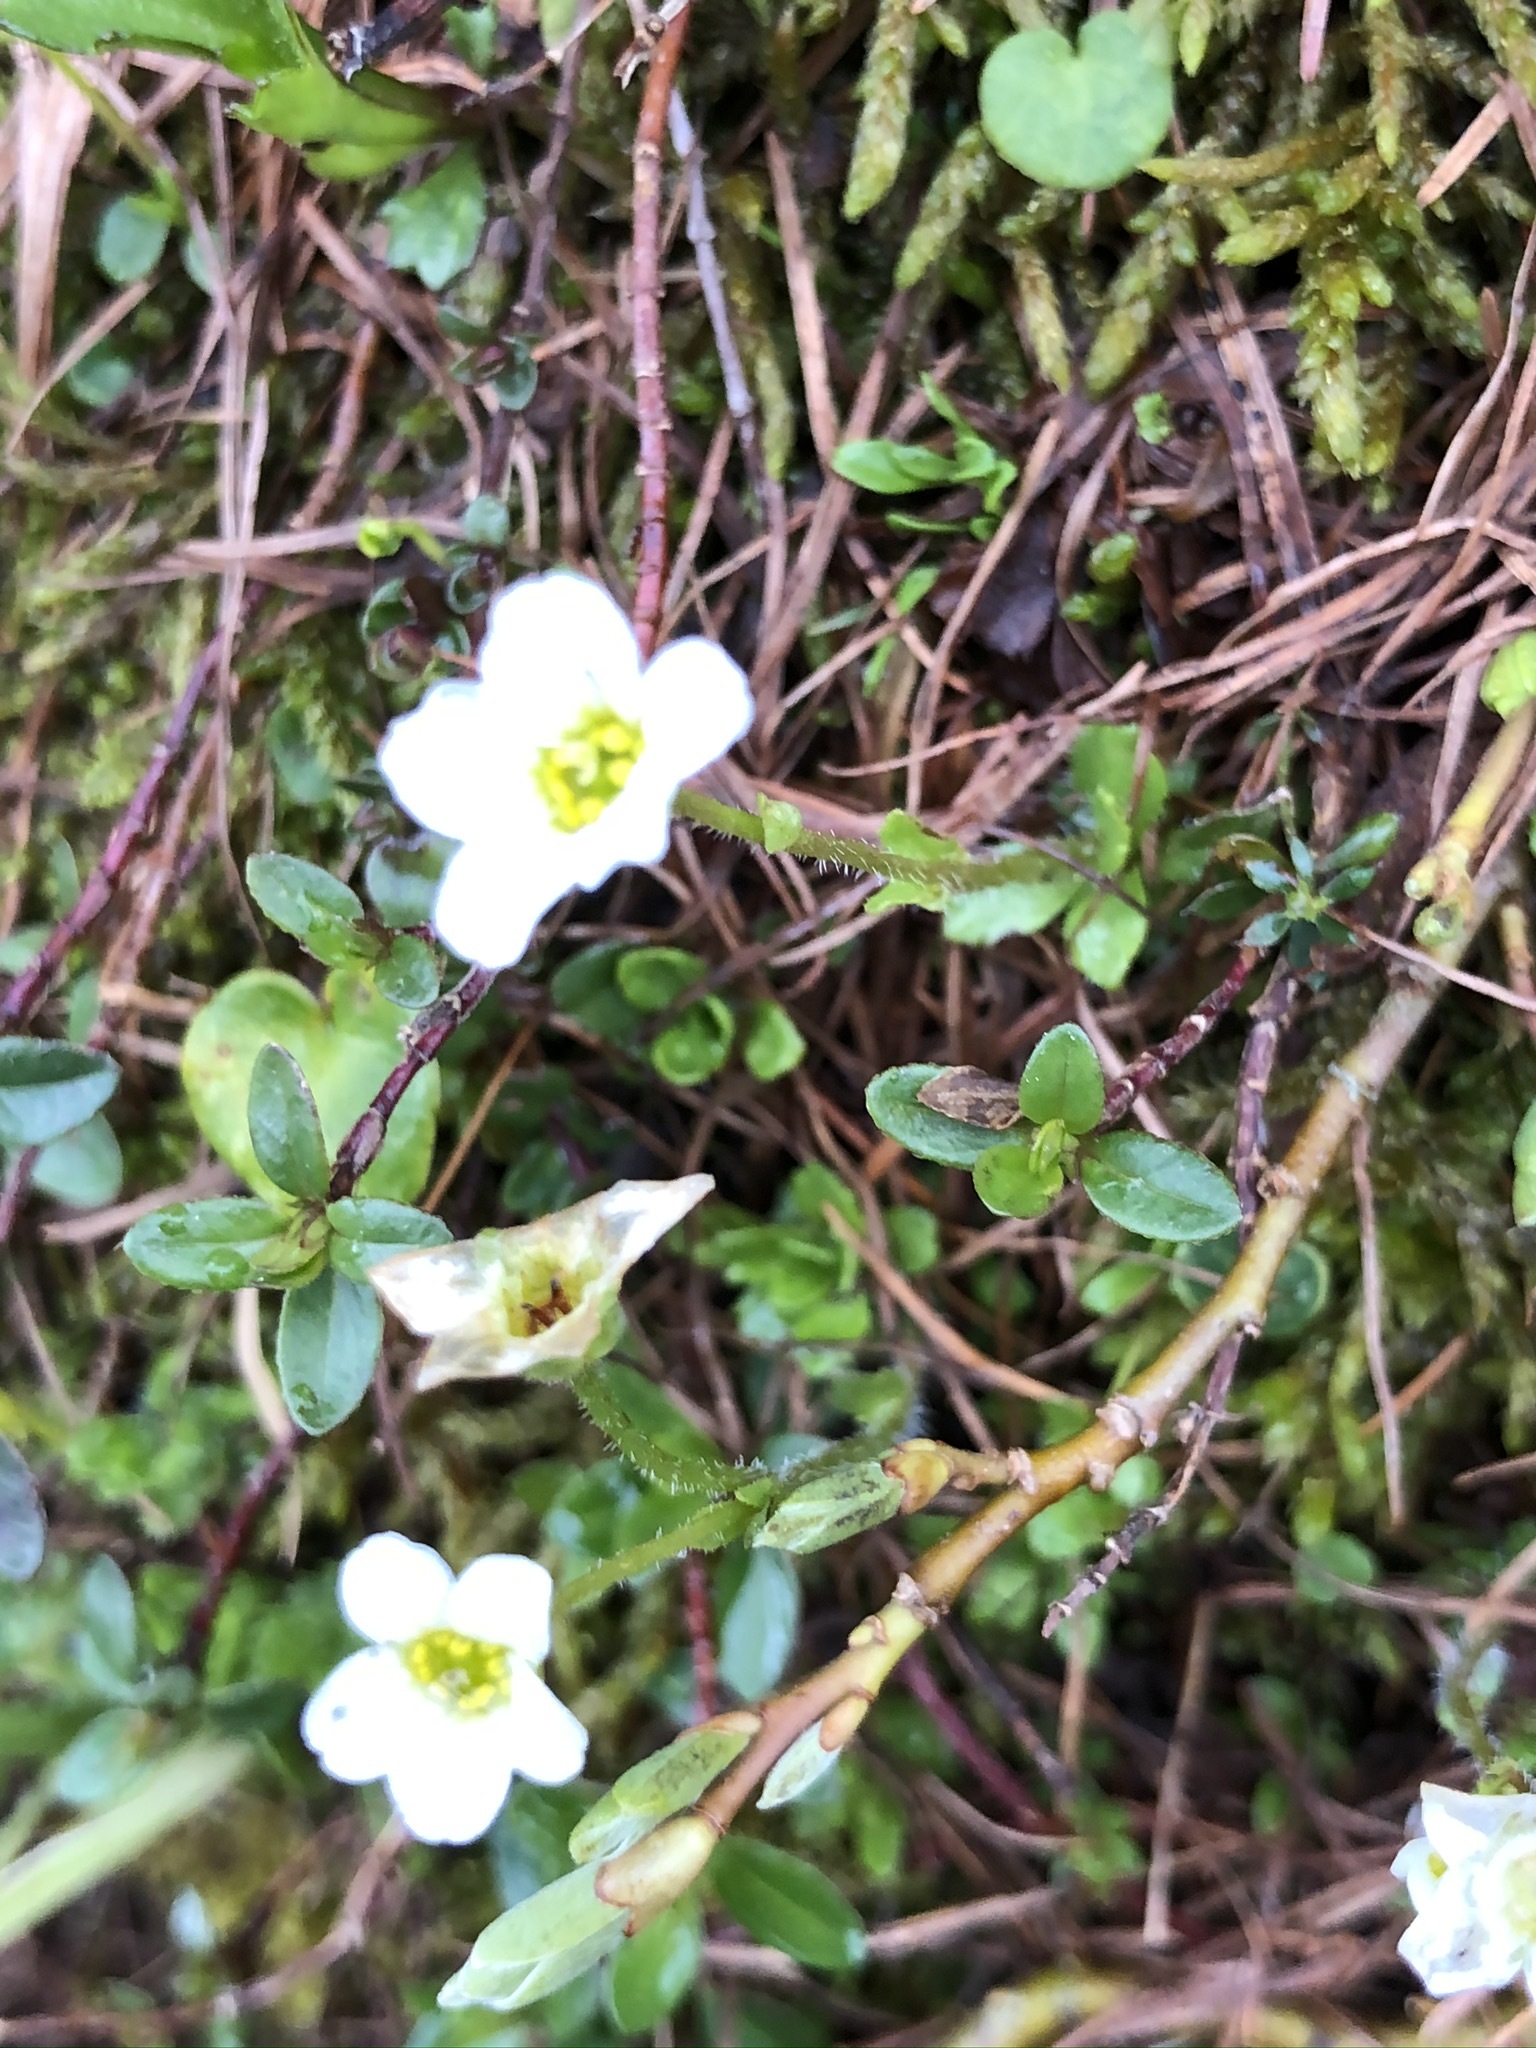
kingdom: Plantae
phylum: Tracheophyta
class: Magnoliopsida
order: Saxifragales
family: Saxifragaceae
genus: Saxifraga
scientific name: Saxifraga androsacea
